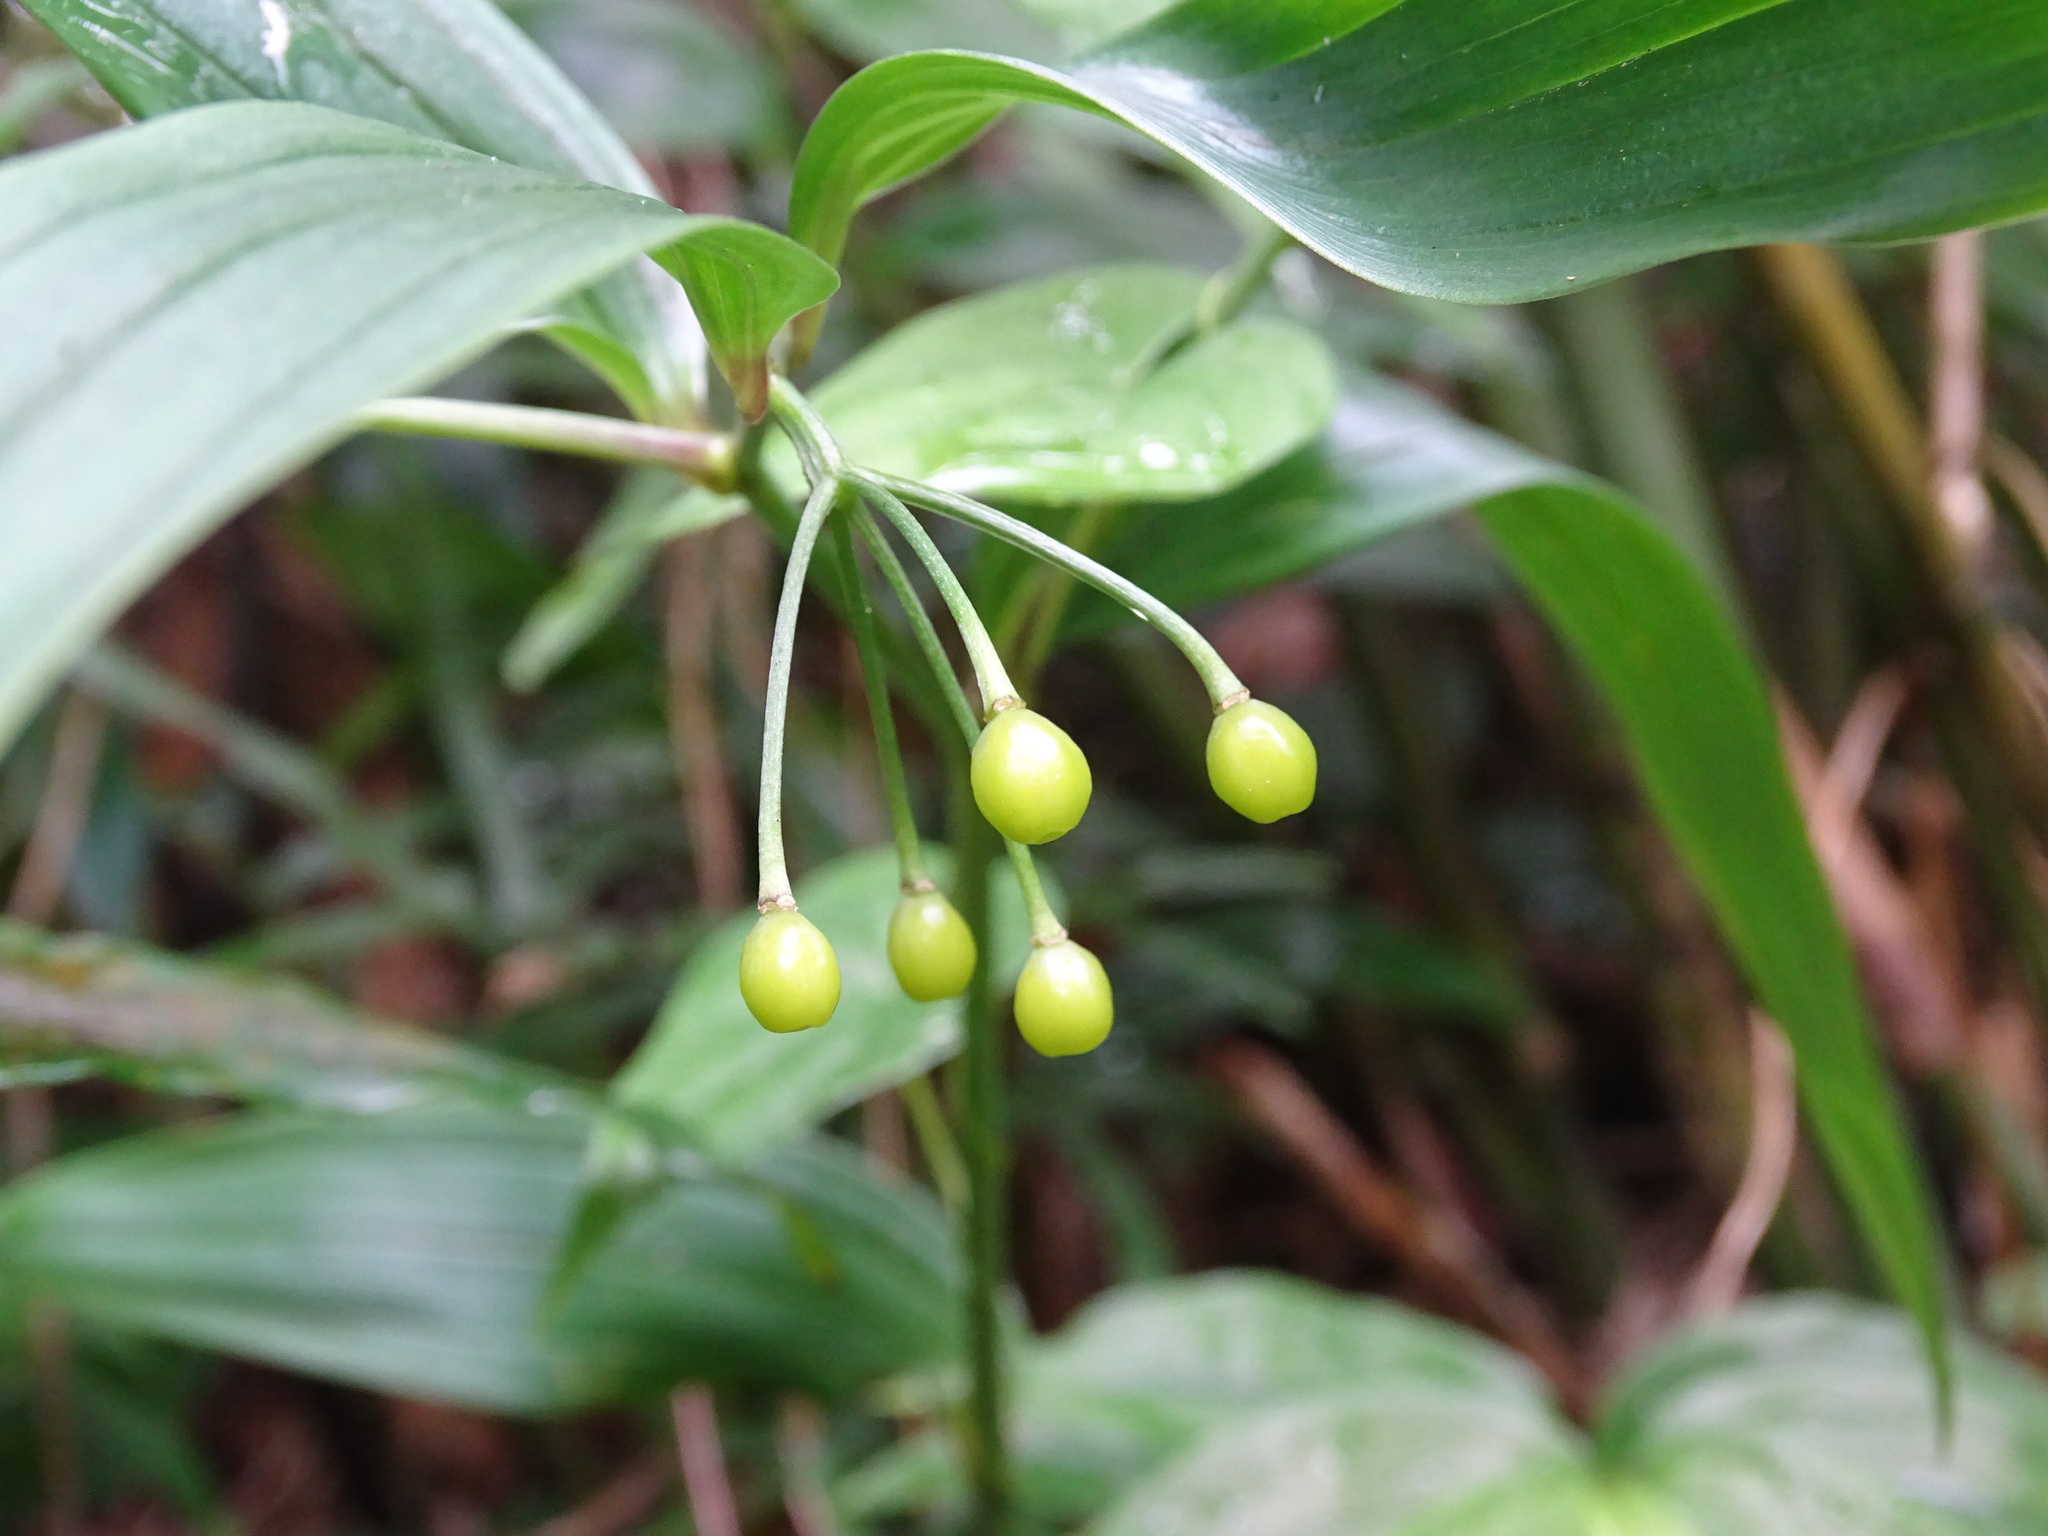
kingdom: Plantae
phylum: Tracheophyta
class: Liliopsida
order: Liliales
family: Colchicaceae
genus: Disporum
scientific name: Disporum shimadae
